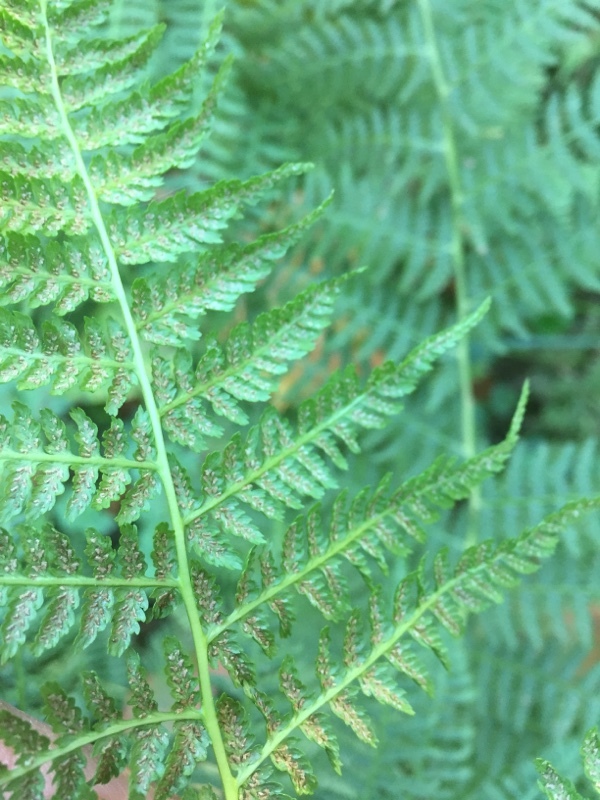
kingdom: Plantae
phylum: Tracheophyta
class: Polypodiopsida
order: Polypodiales
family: Athyriaceae
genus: Athyrium
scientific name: Athyrium filix-femina
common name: Lady fern
